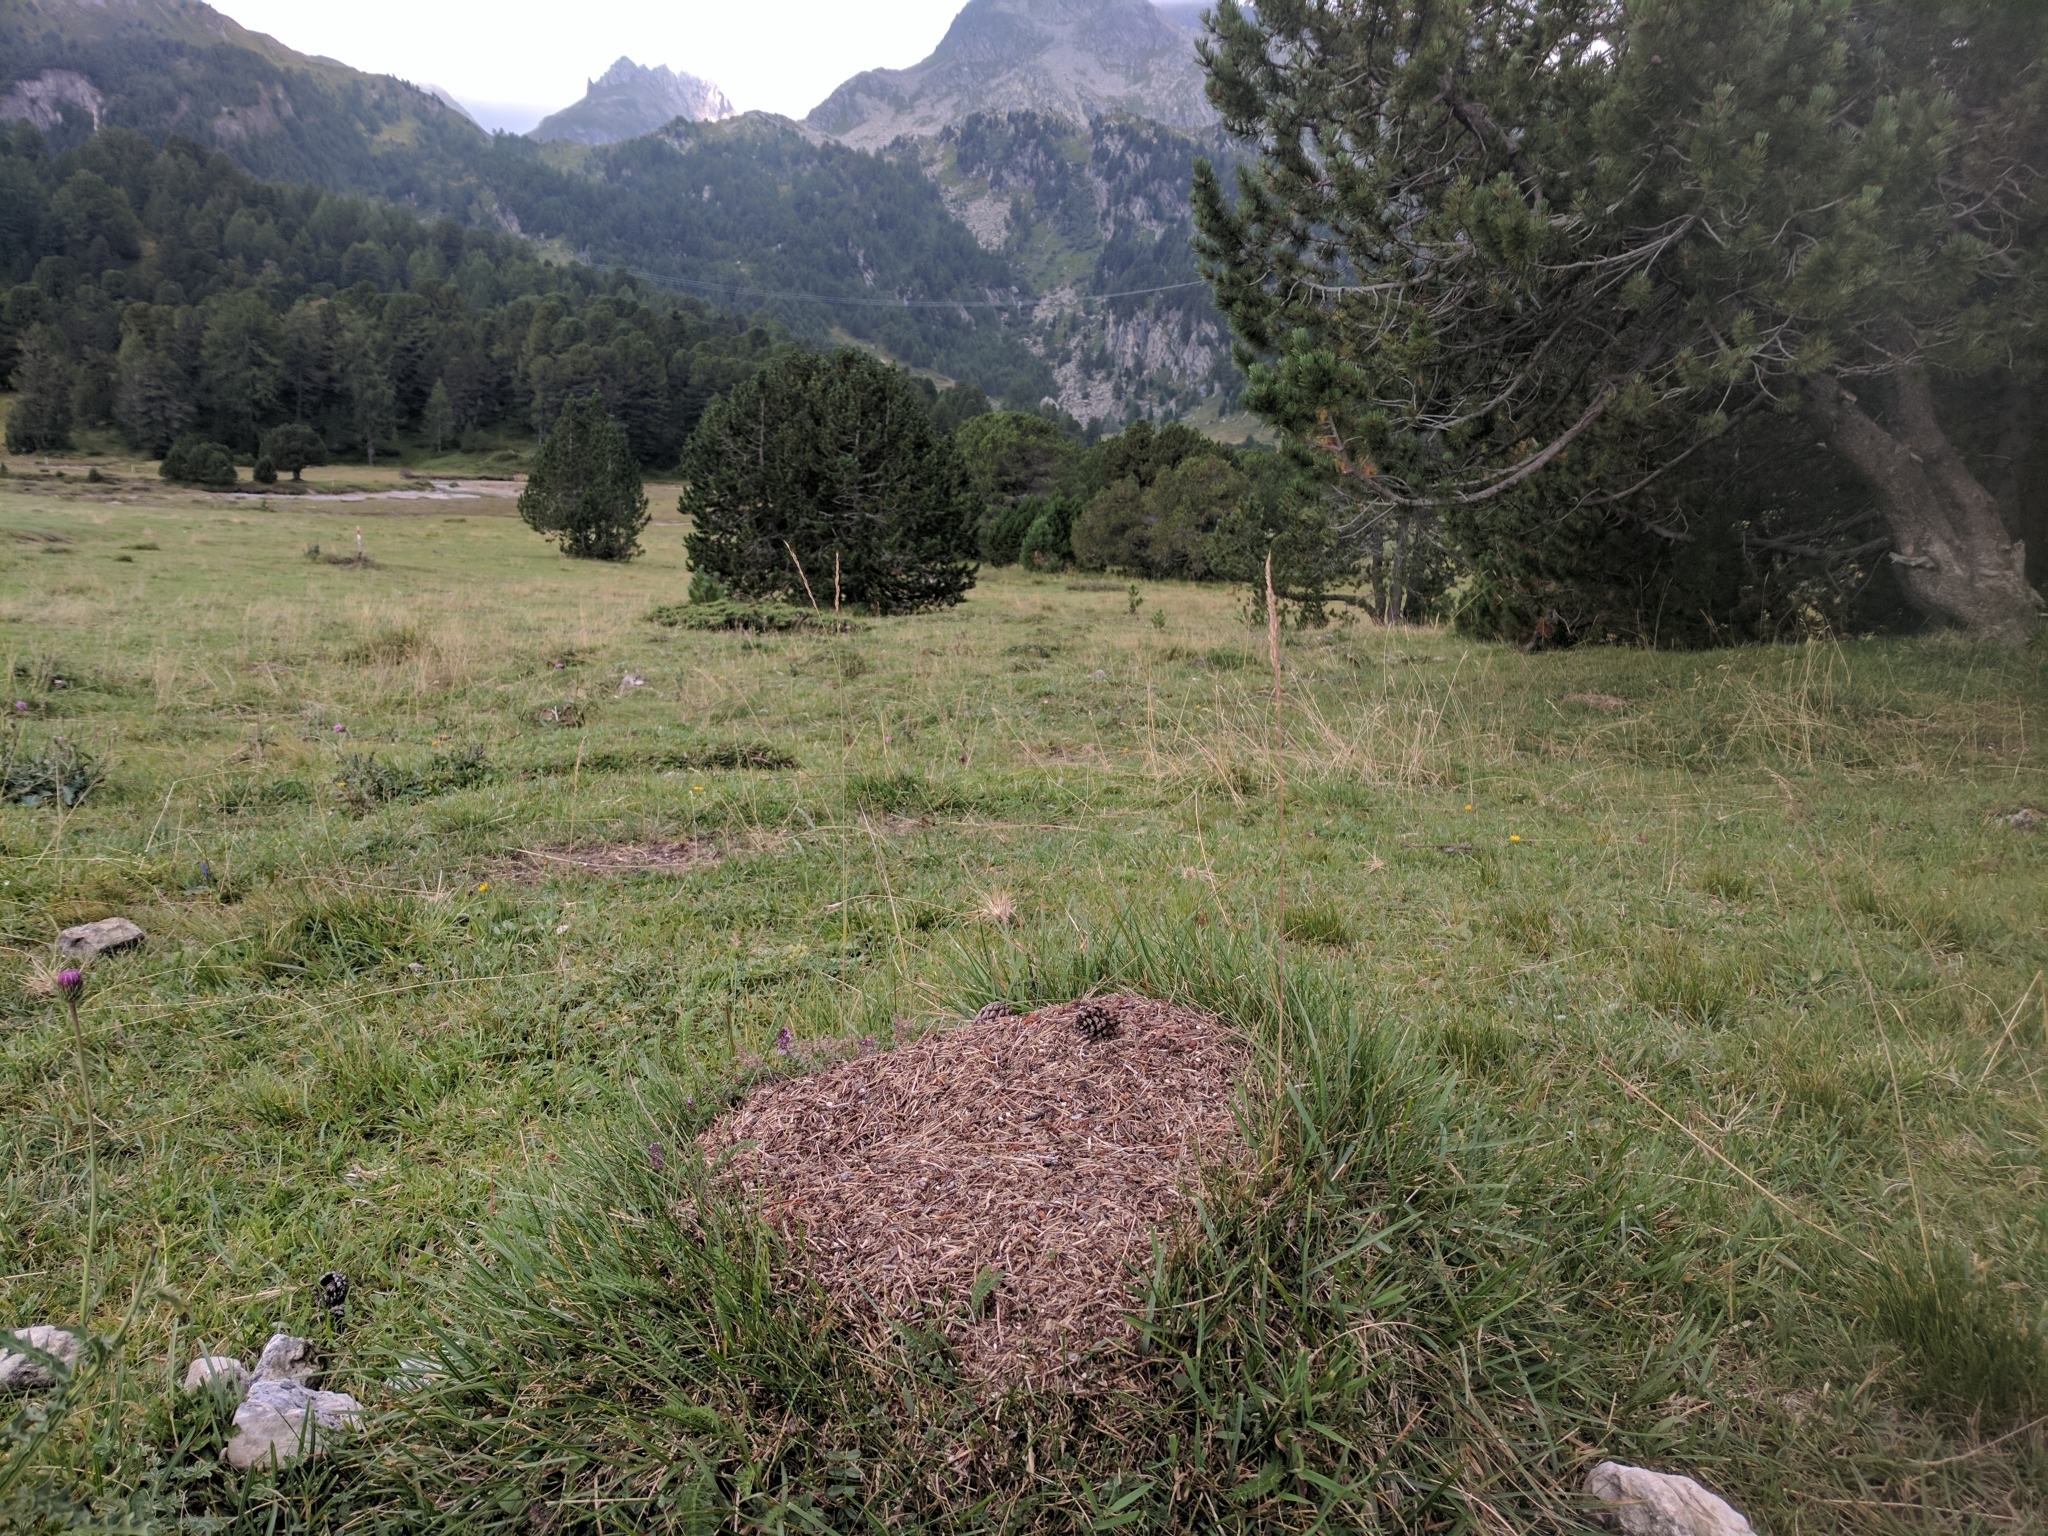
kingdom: Animalia
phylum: Arthropoda
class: Insecta
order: Hymenoptera
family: Formicidae
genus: Formica
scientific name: Formica exsecta
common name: Narrow headed ant
